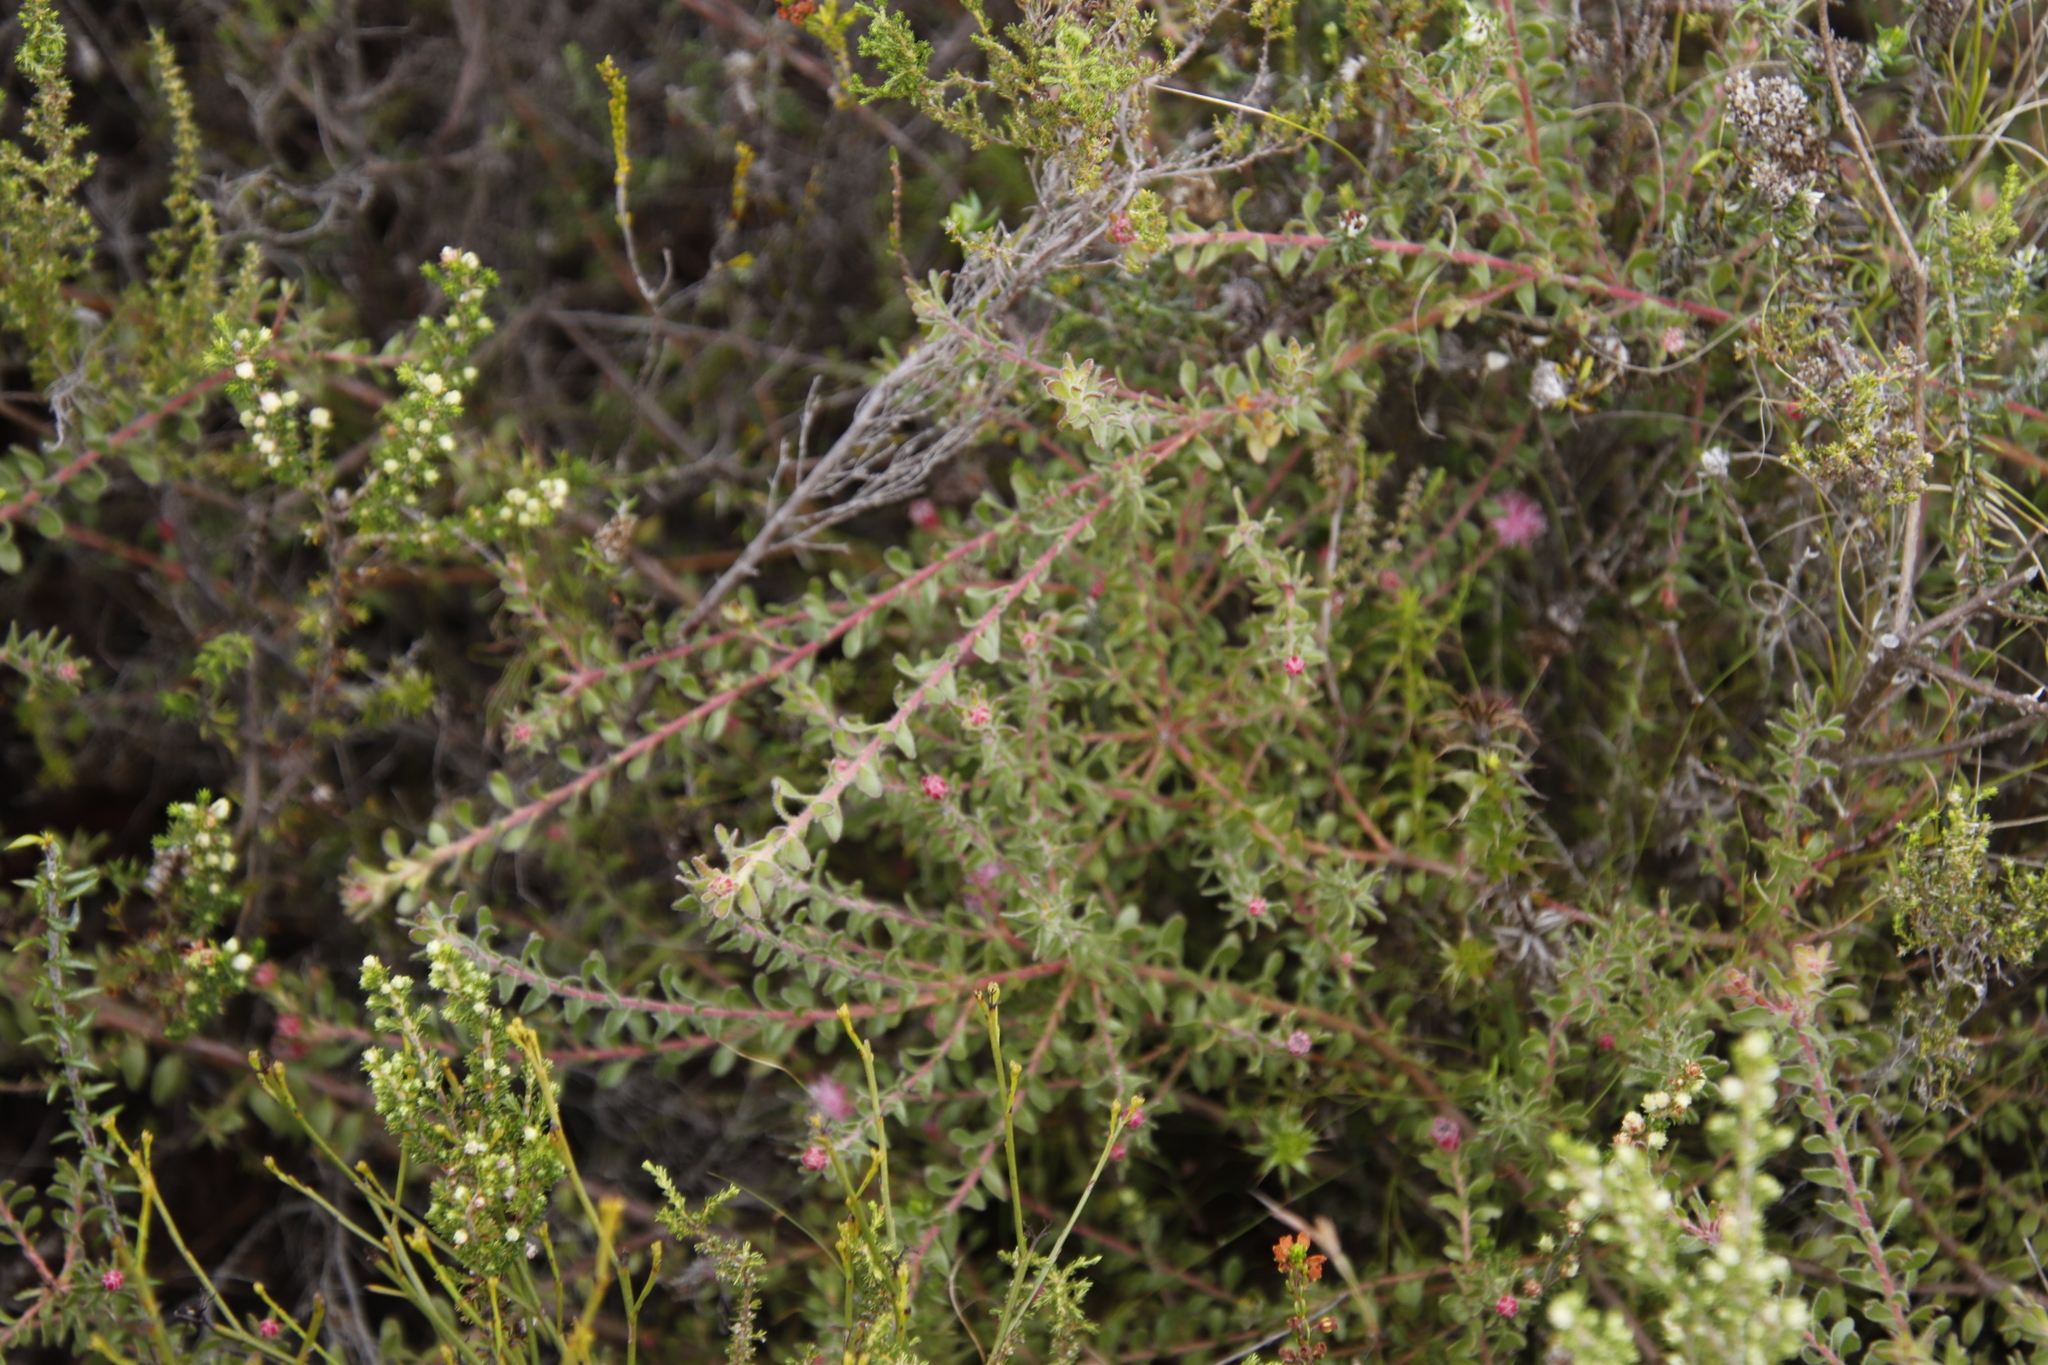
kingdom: Plantae
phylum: Tracheophyta
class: Magnoliopsida
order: Proteales
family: Proteaceae
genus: Diastella
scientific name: Diastella divaricata
